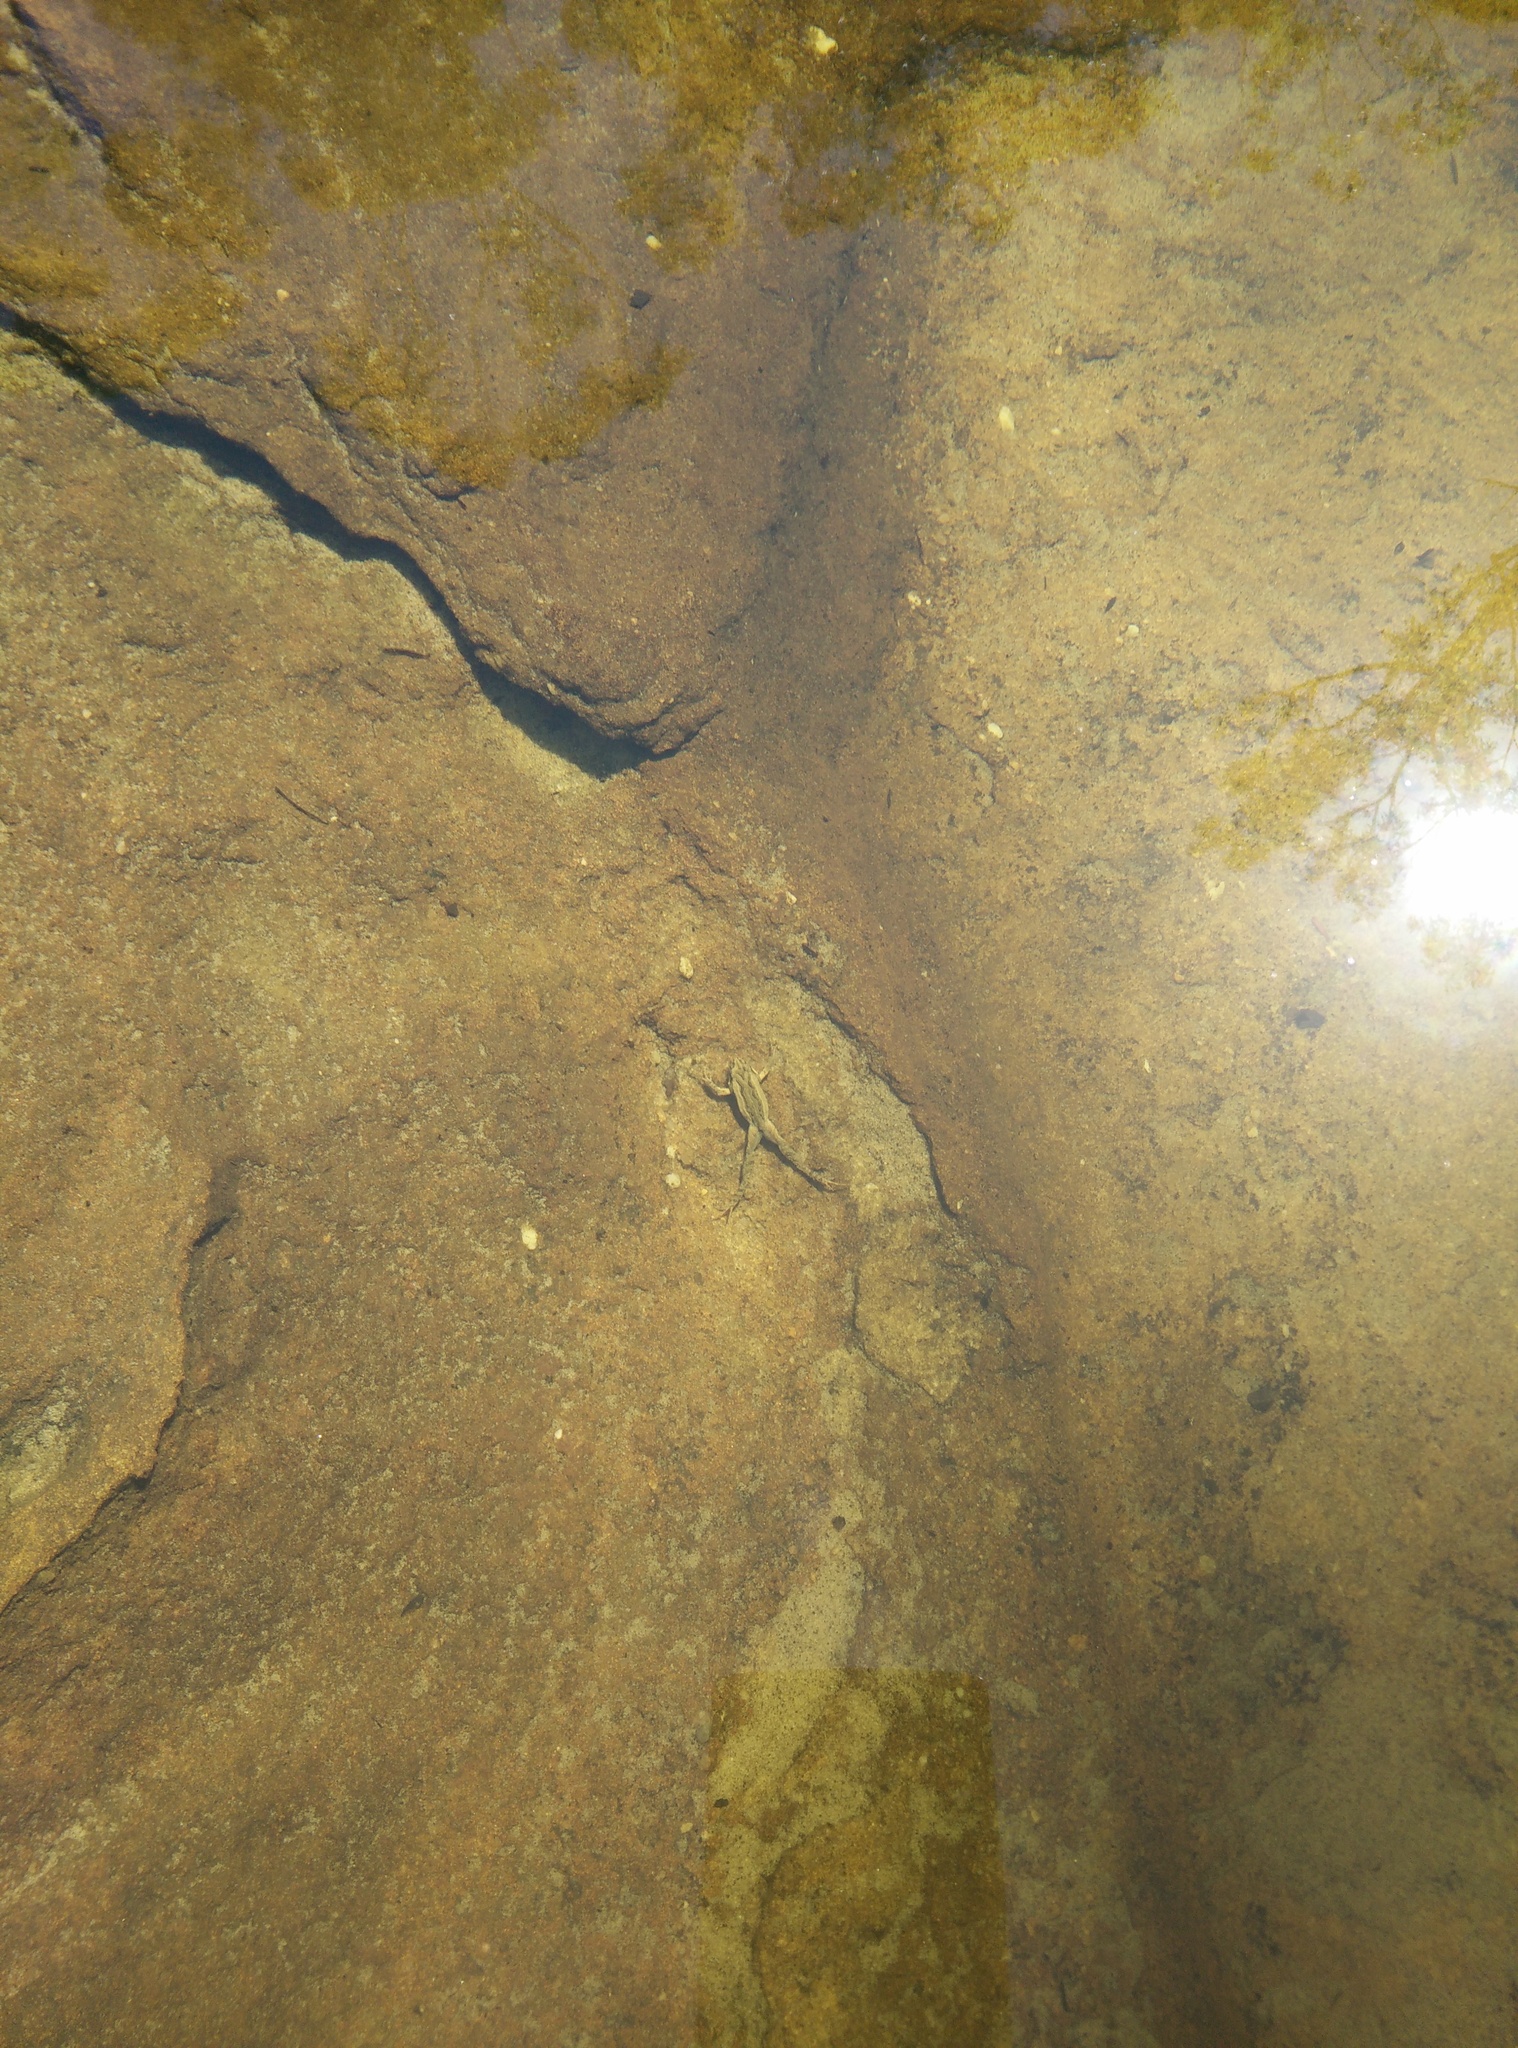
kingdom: Animalia
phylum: Chordata
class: Amphibia
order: Anura
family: Myobatrachidae
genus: Crinia
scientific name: Crinia signifera
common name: Brown froglet
